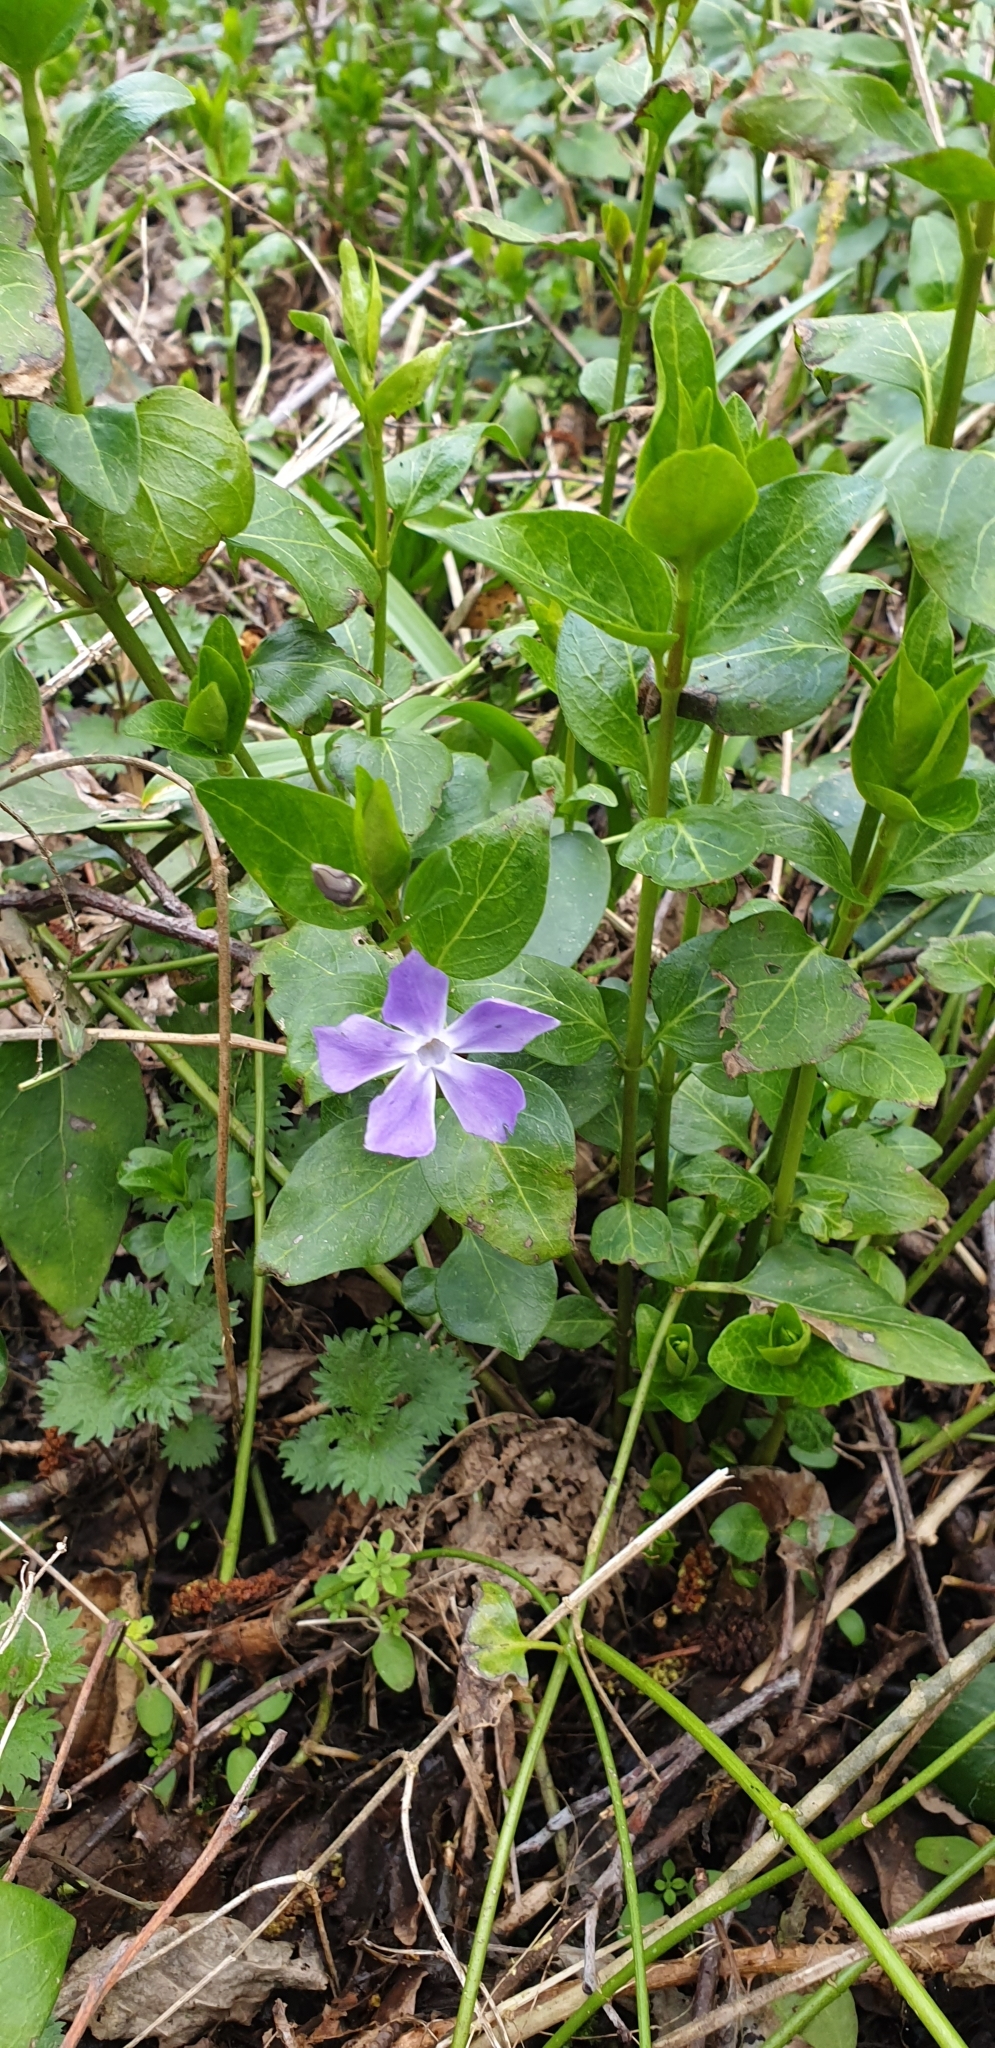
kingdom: Plantae
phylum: Tracheophyta
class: Magnoliopsida
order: Gentianales
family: Apocynaceae
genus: Vinca
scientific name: Vinca major
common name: Greater periwinkle
